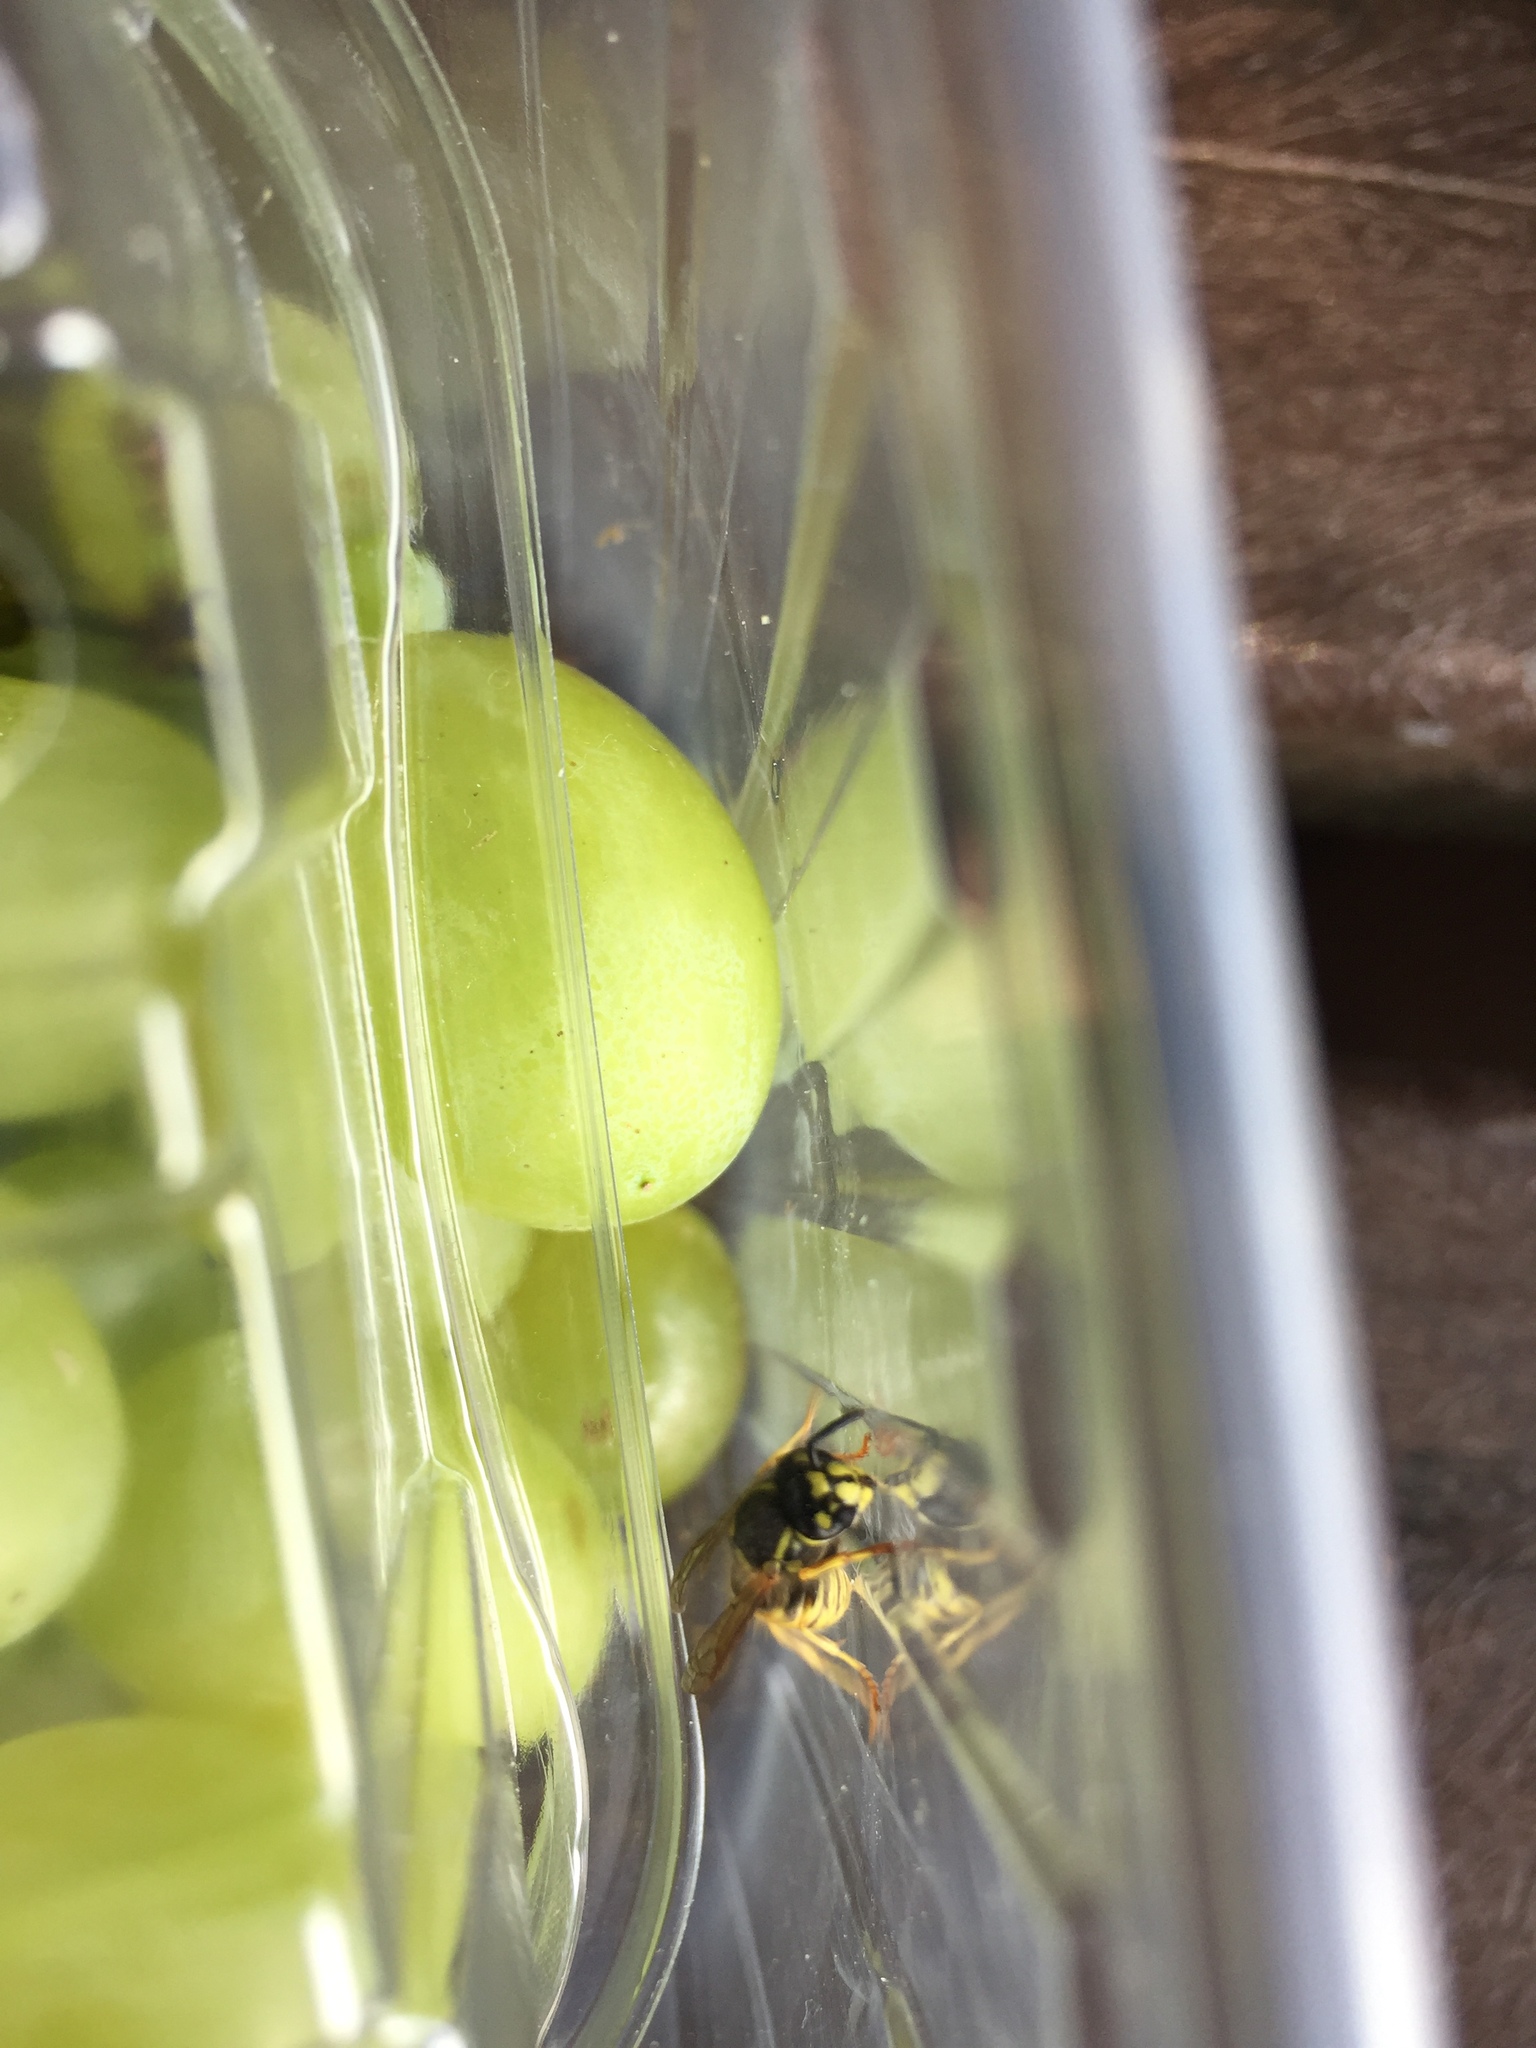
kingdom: Animalia
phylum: Arthropoda
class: Insecta
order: Hymenoptera
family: Vespidae
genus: Vespula
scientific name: Vespula vulgaris
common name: Common wasp
